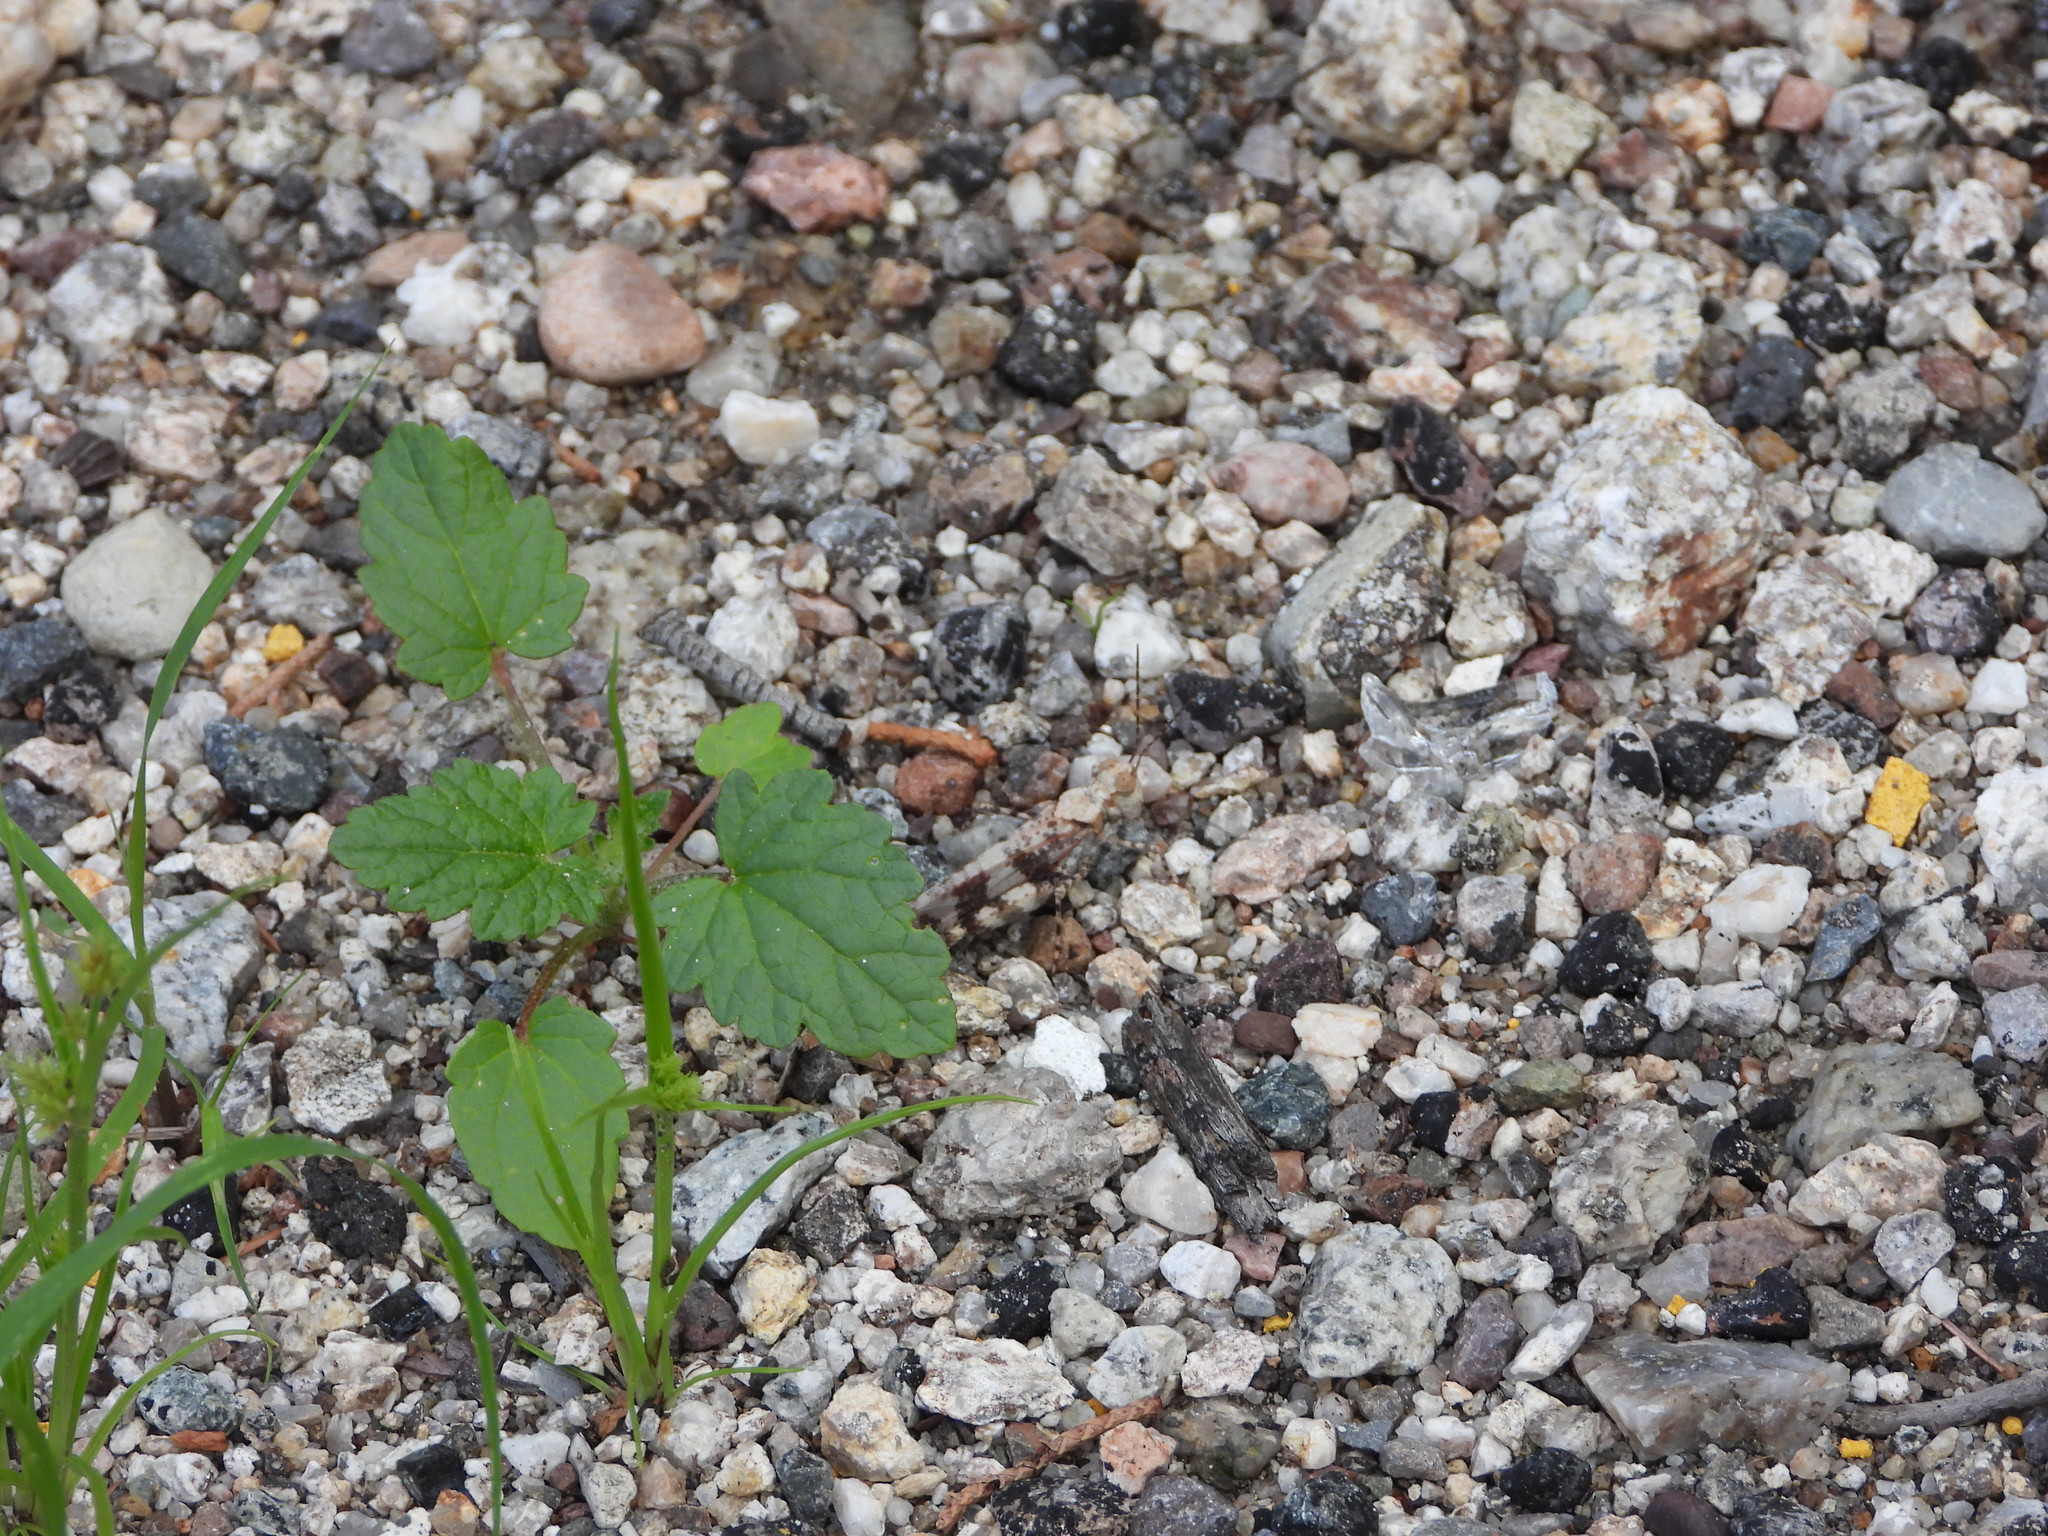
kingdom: Plantae
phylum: Tracheophyta
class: Magnoliopsida
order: Malvales
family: Malvaceae
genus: Sphaeralcea
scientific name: Sphaeralcea coulteri
